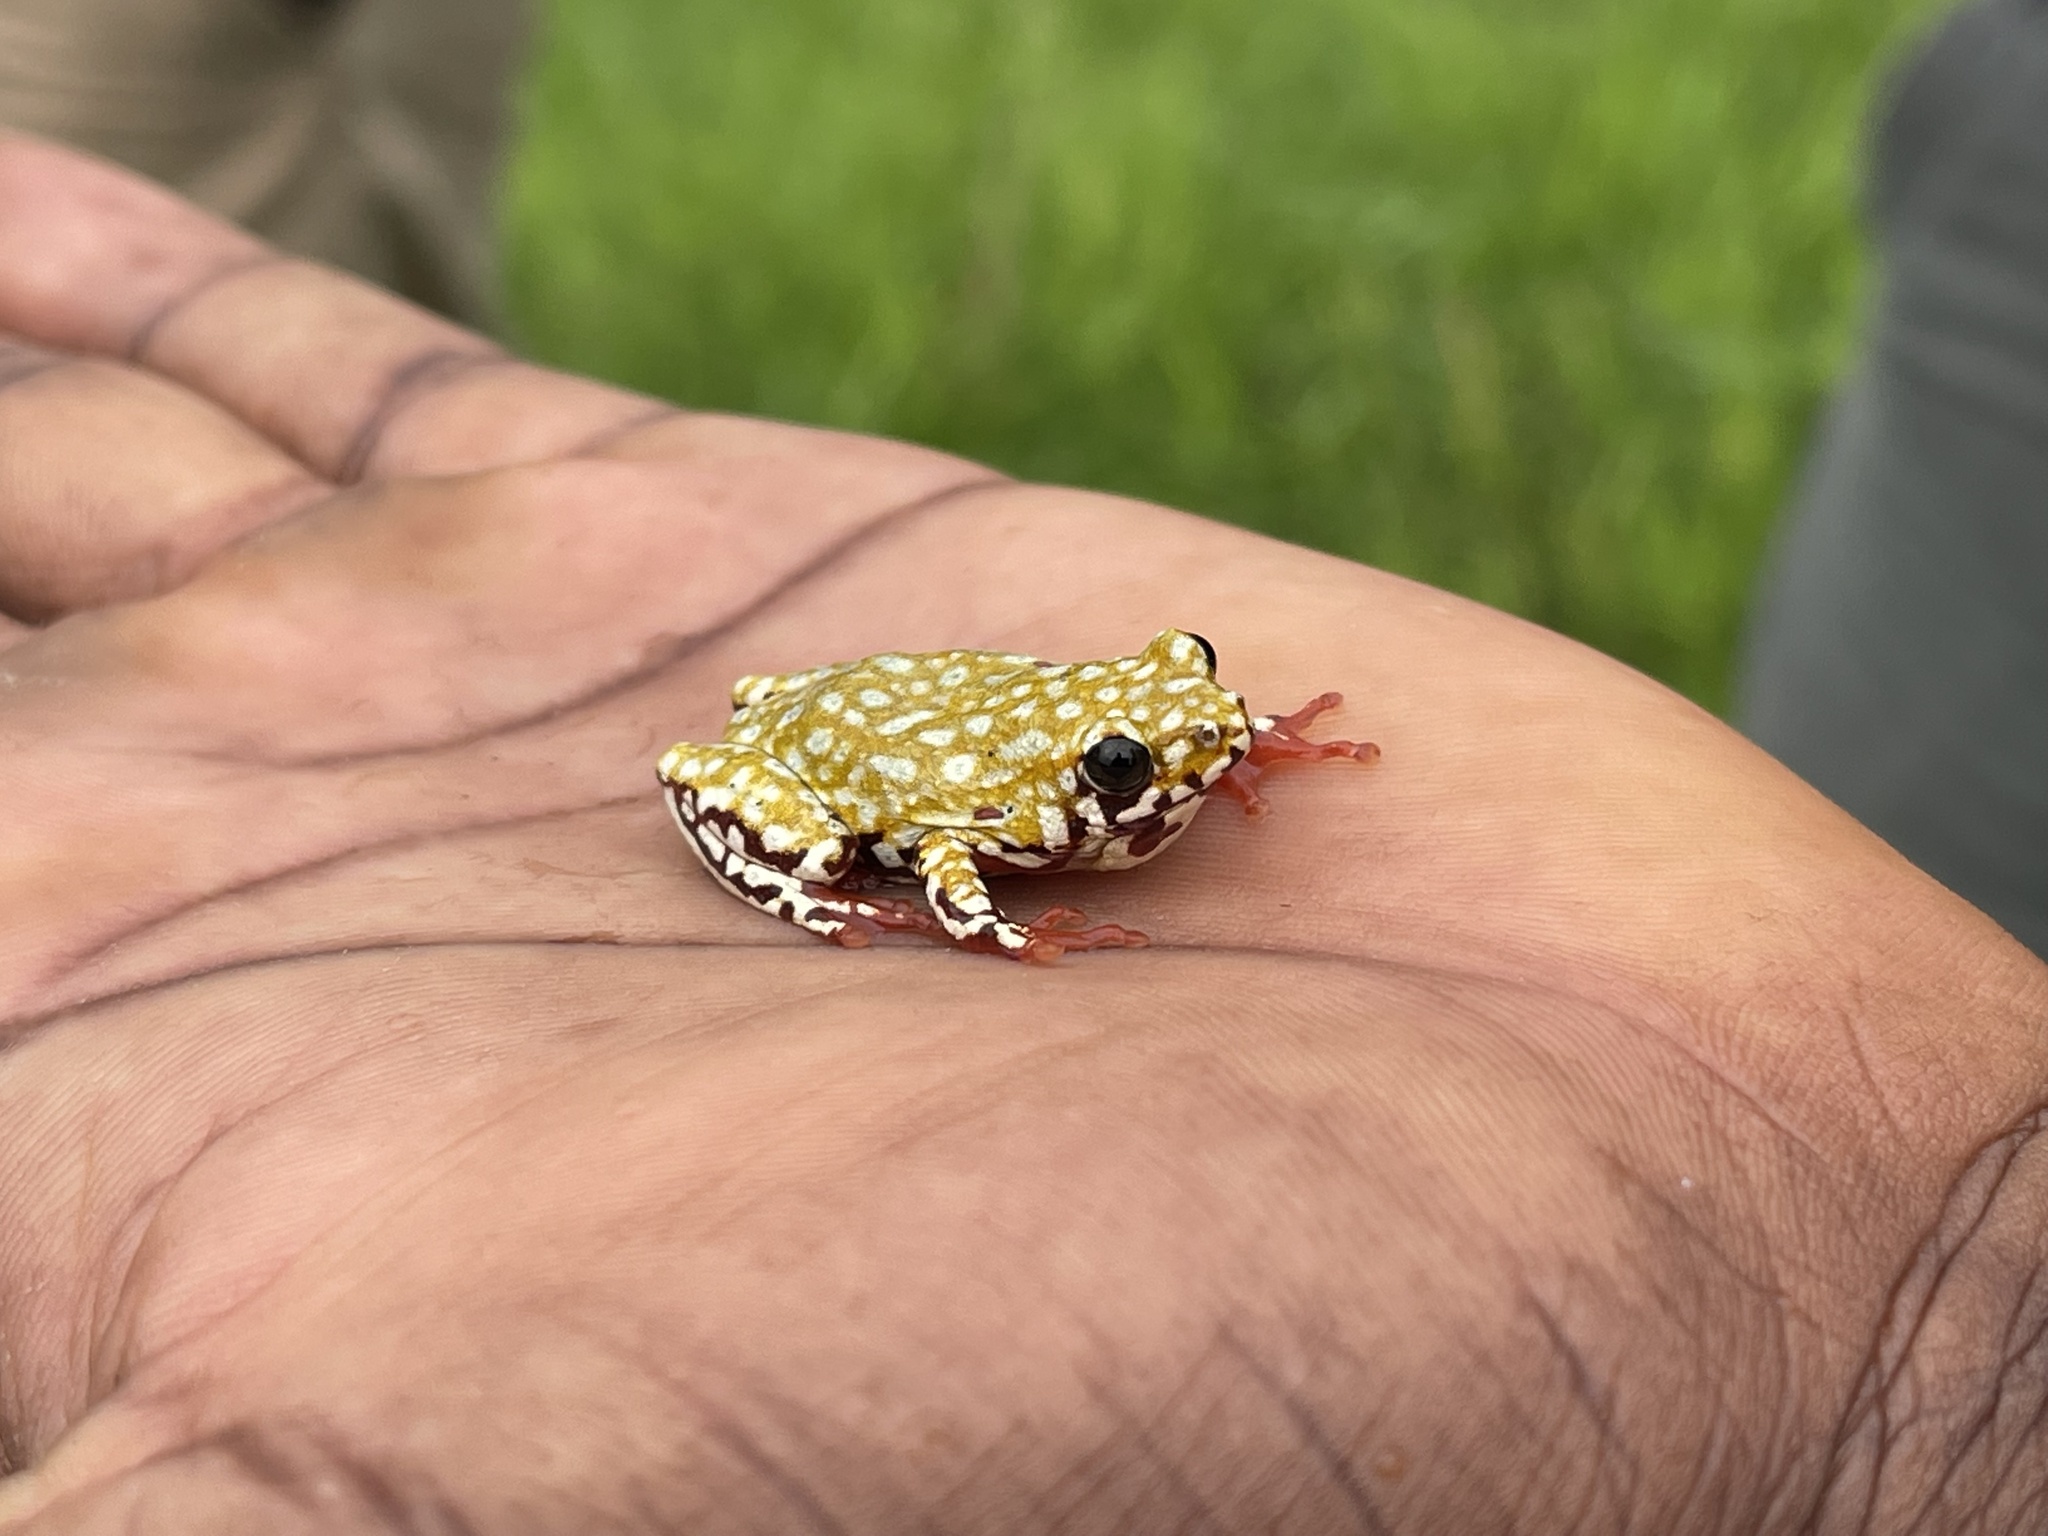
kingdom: Animalia
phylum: Chordata
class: Amphibia
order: Anura
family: Hyperoliidae
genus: Hyperolius
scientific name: Hyperolius marginatus
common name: Silver-striped sedgefrog
